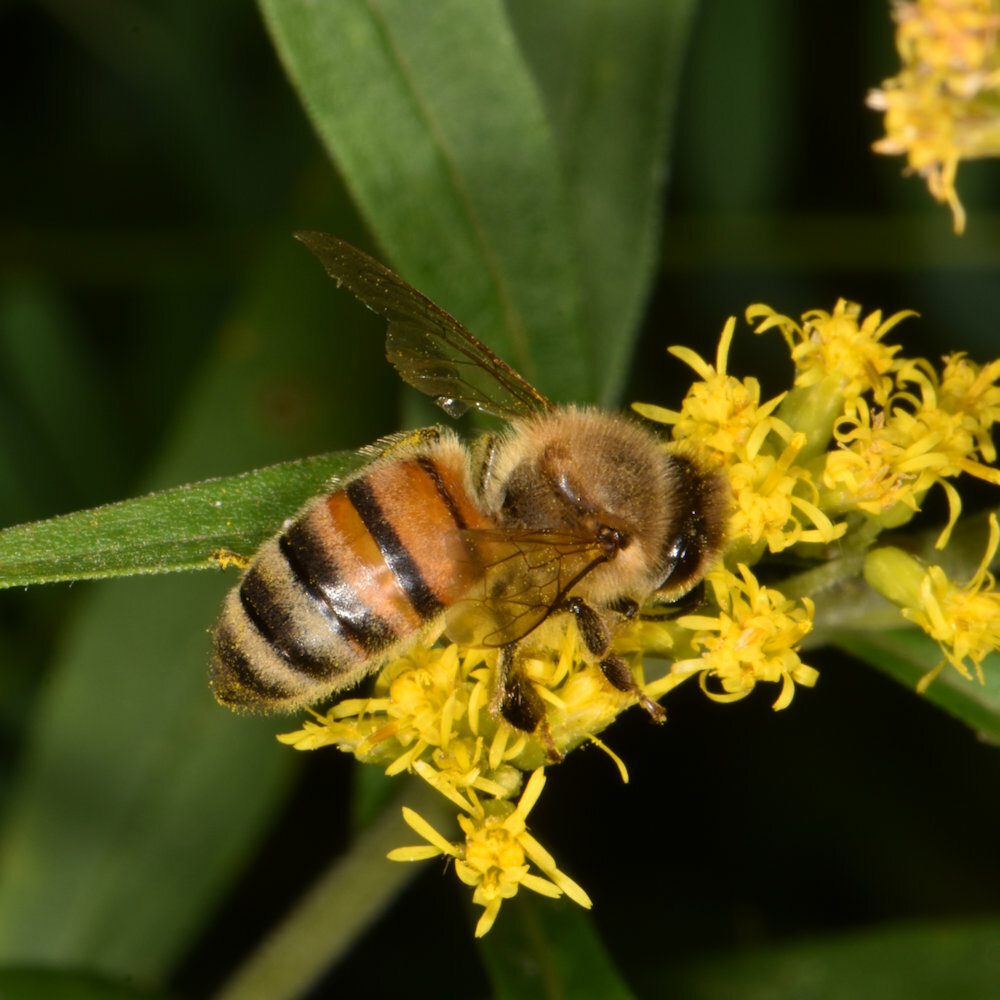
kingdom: Animalia
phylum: Arthropoda
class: Insecta
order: Hymenoptera
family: Apidae
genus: Apis
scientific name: Apis mellifera
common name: Honey bee
